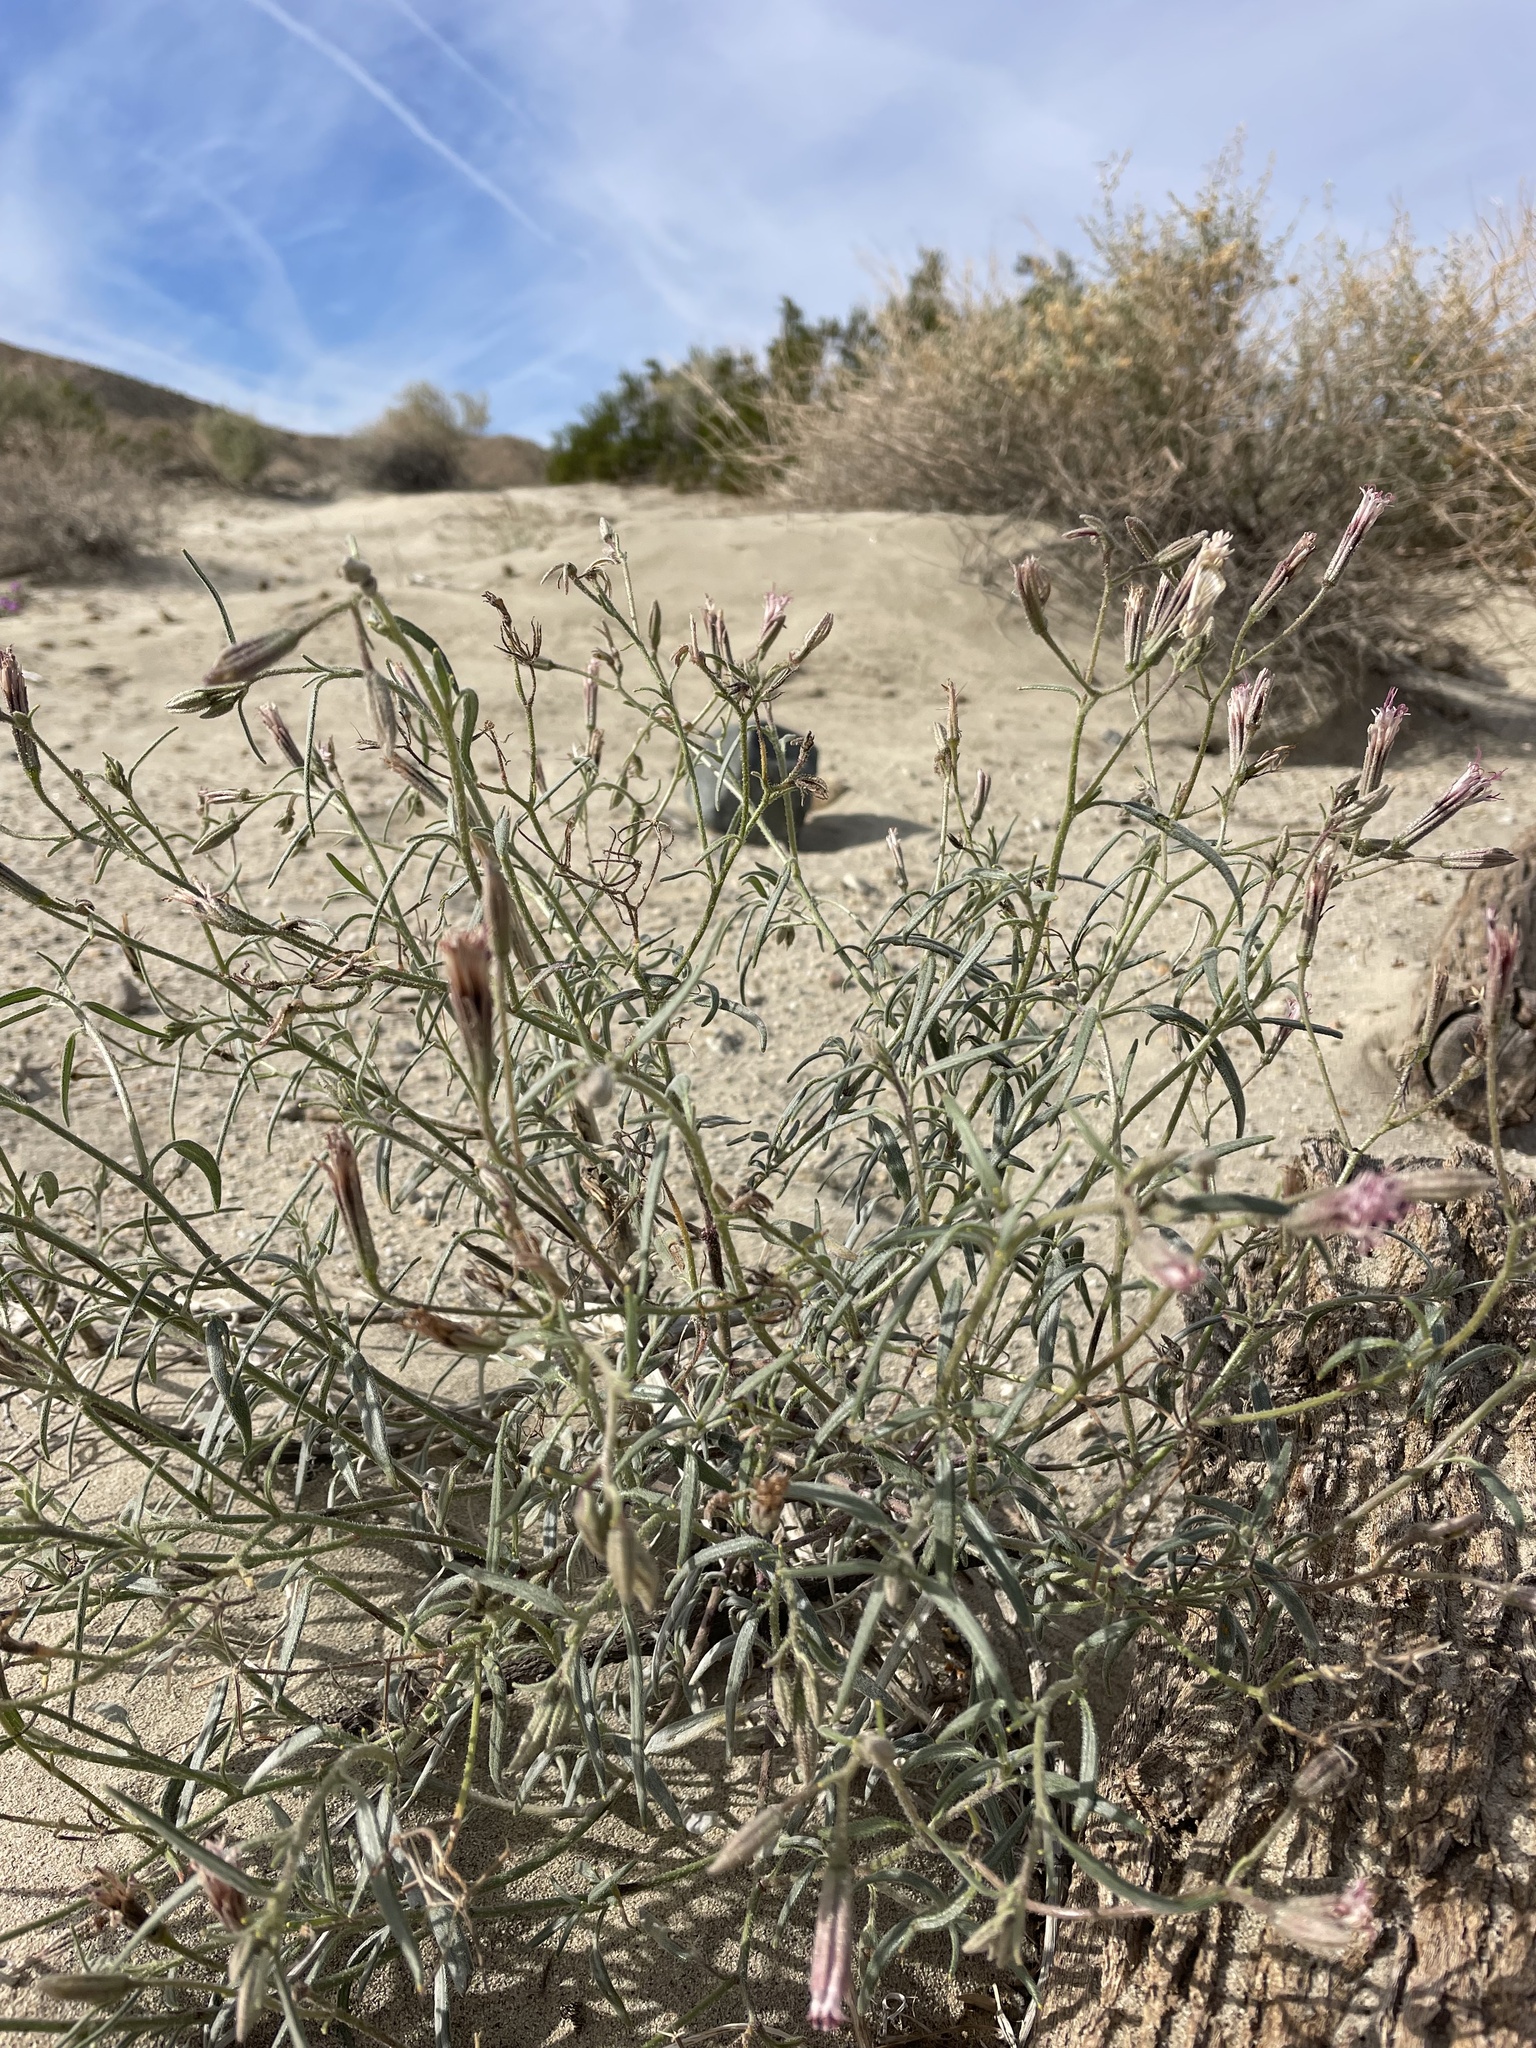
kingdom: Plantae
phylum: Tracheophyta
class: Magnoliopsida
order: Asterales
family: Asteraceae
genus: Palafoxia
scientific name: Palafoxia arida
